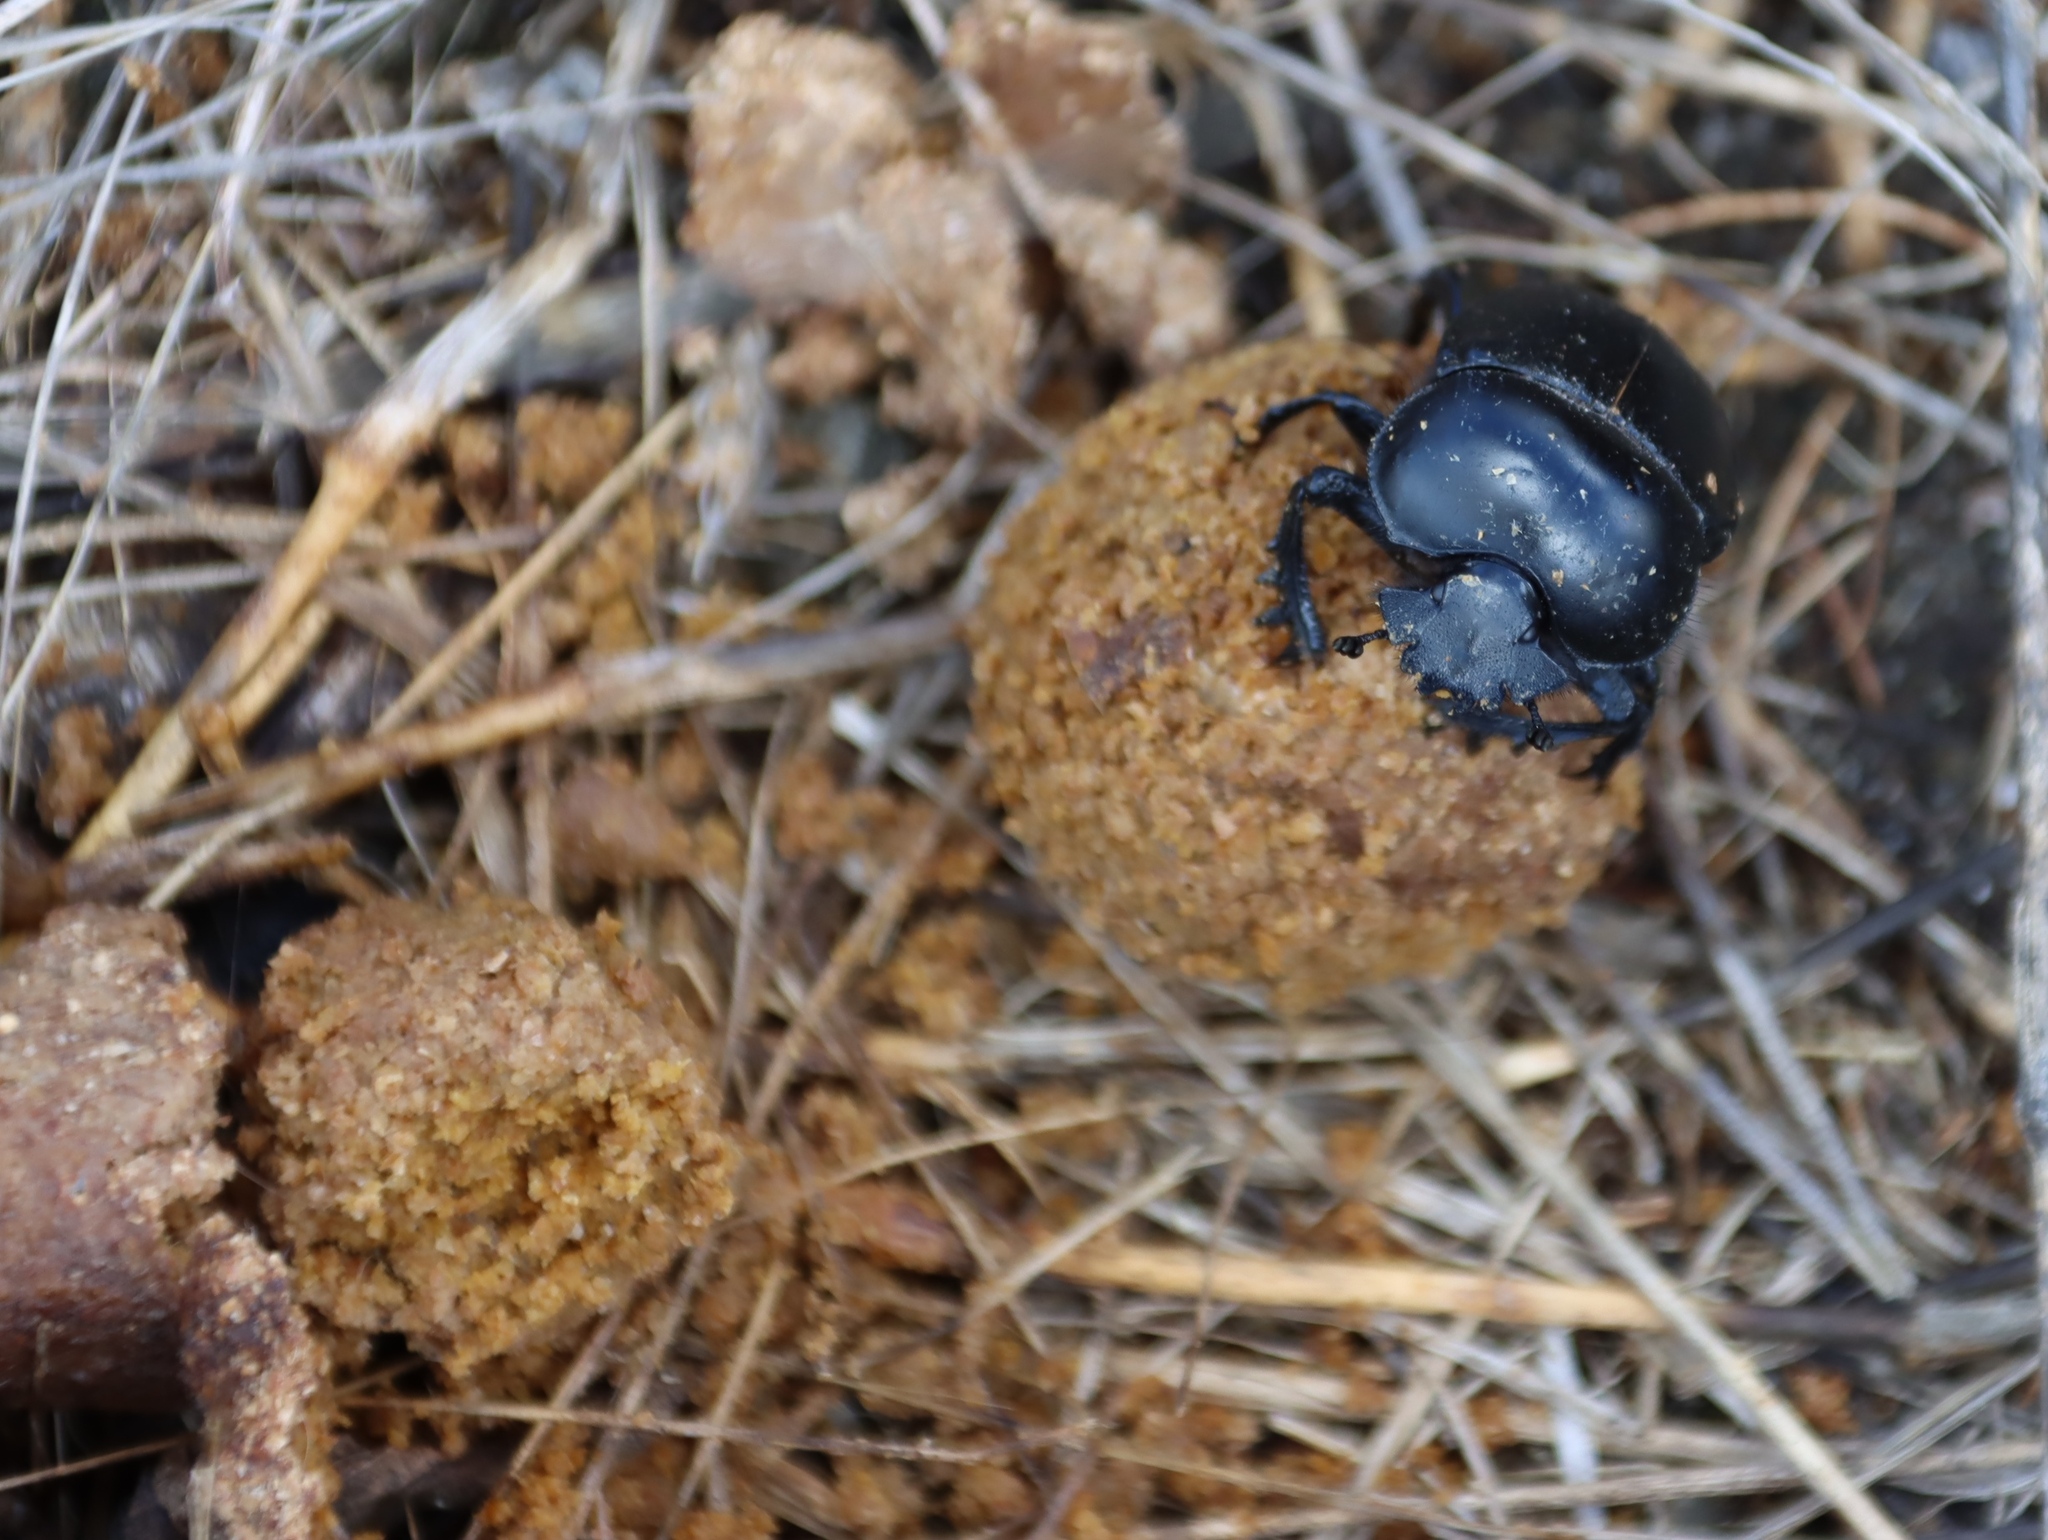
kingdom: Animalia
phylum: Chordata
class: Mammalia
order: Carnivora
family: Canidae
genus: Canis
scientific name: Canis lupus
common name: Gray wolf
